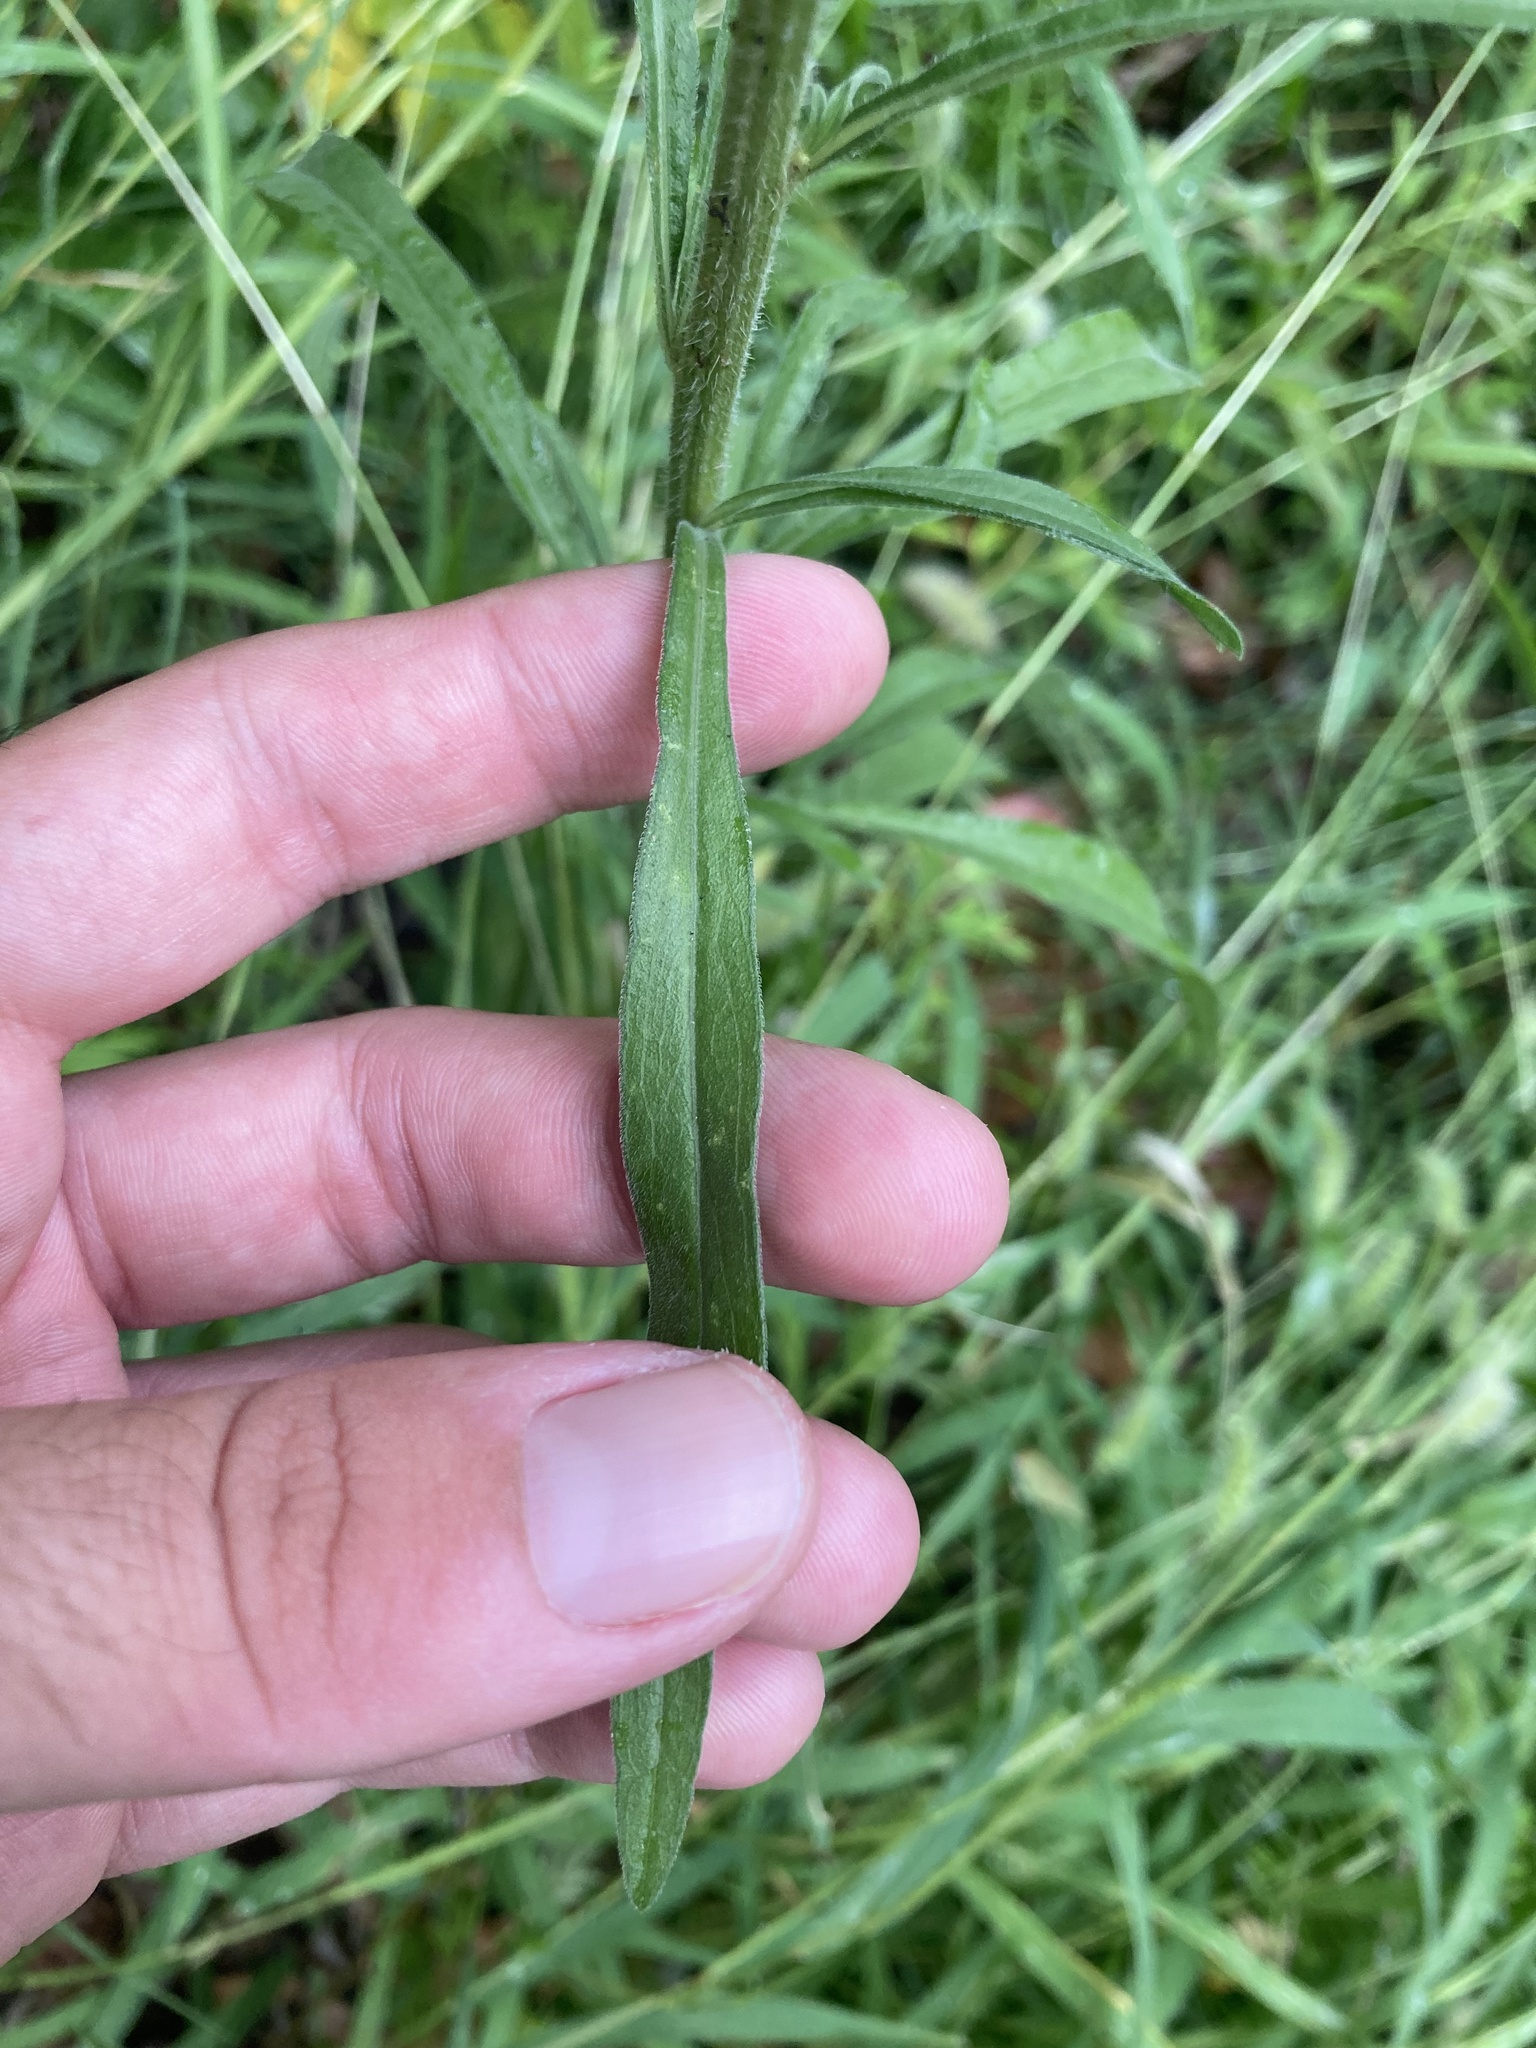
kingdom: Plantae
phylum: Tracheophyta
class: Magnoliopsida
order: Asterales
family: Asteraceae
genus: Erigeron
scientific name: Erigeron canadensis
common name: Canadian fleabane
